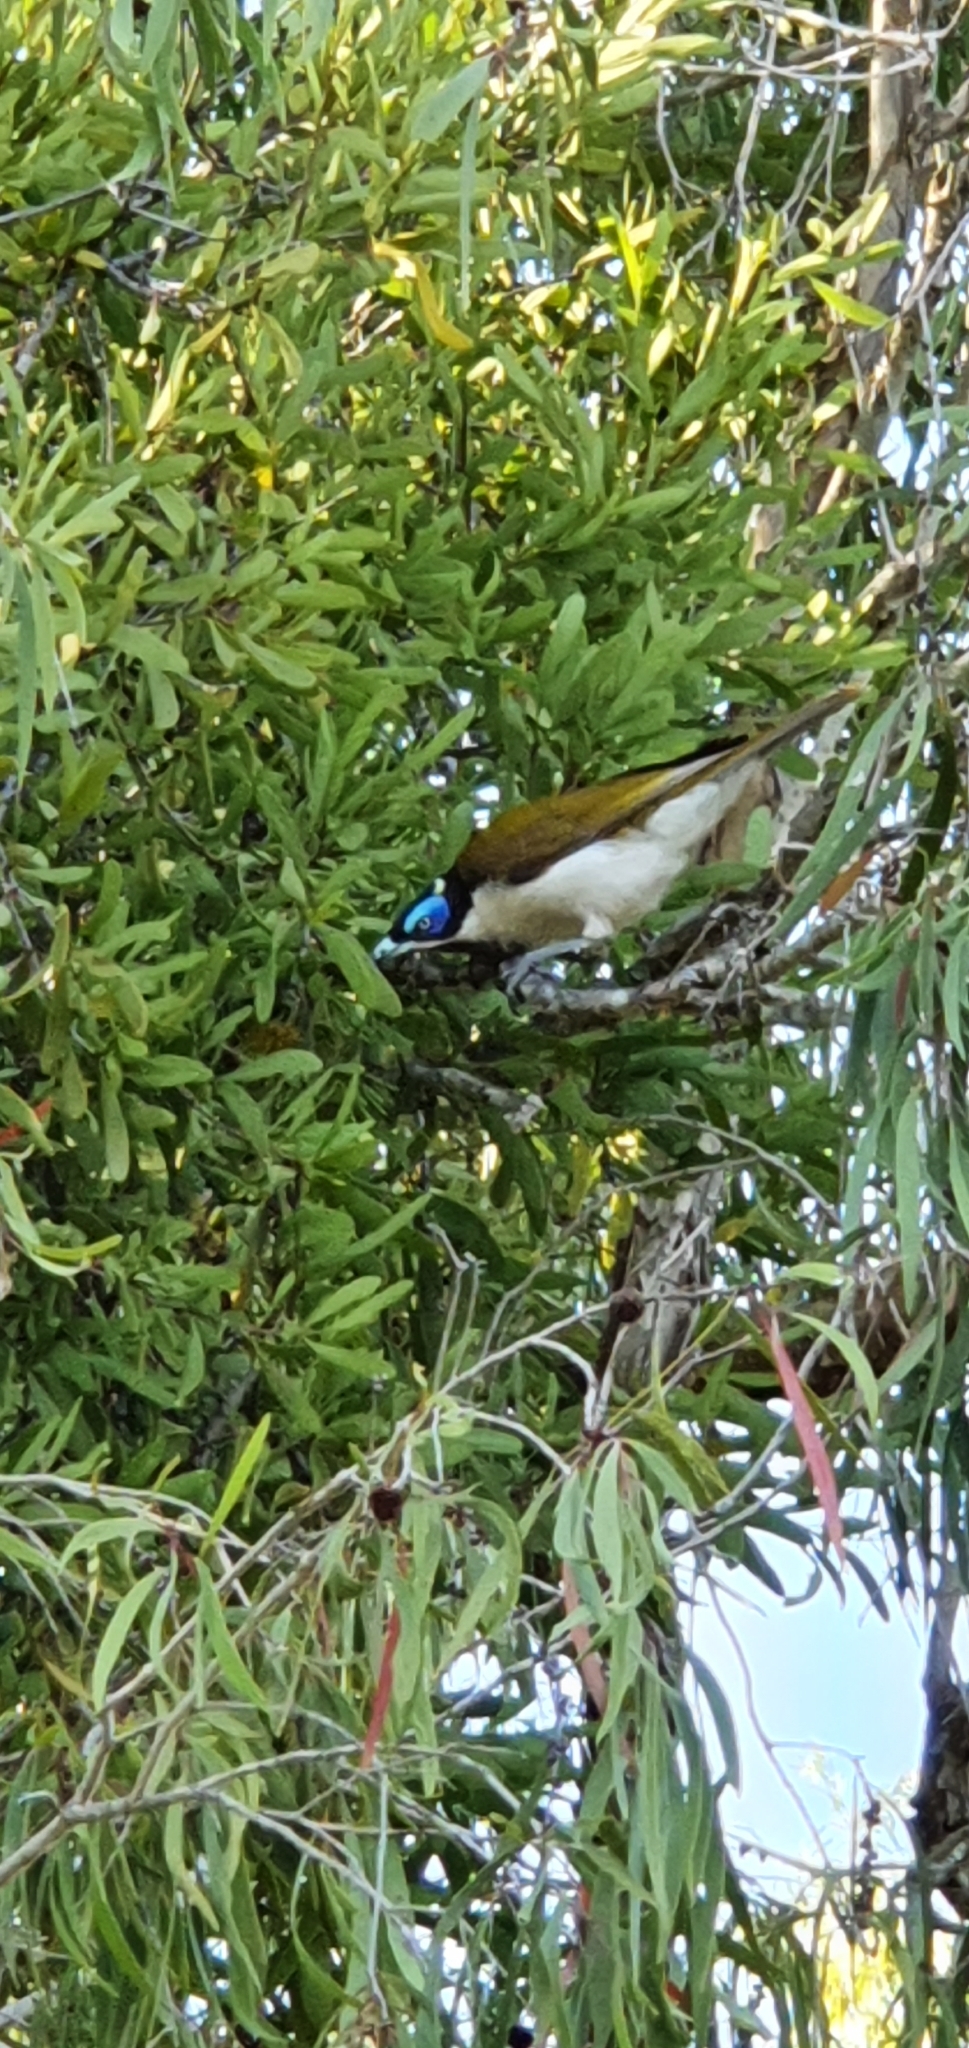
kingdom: Animalia
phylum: Chordata
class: Aves
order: Passeriformes
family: Meliphagidae
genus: Entomyzon
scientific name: Entomyzon cyanotis
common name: Blue-faced honeyeater
